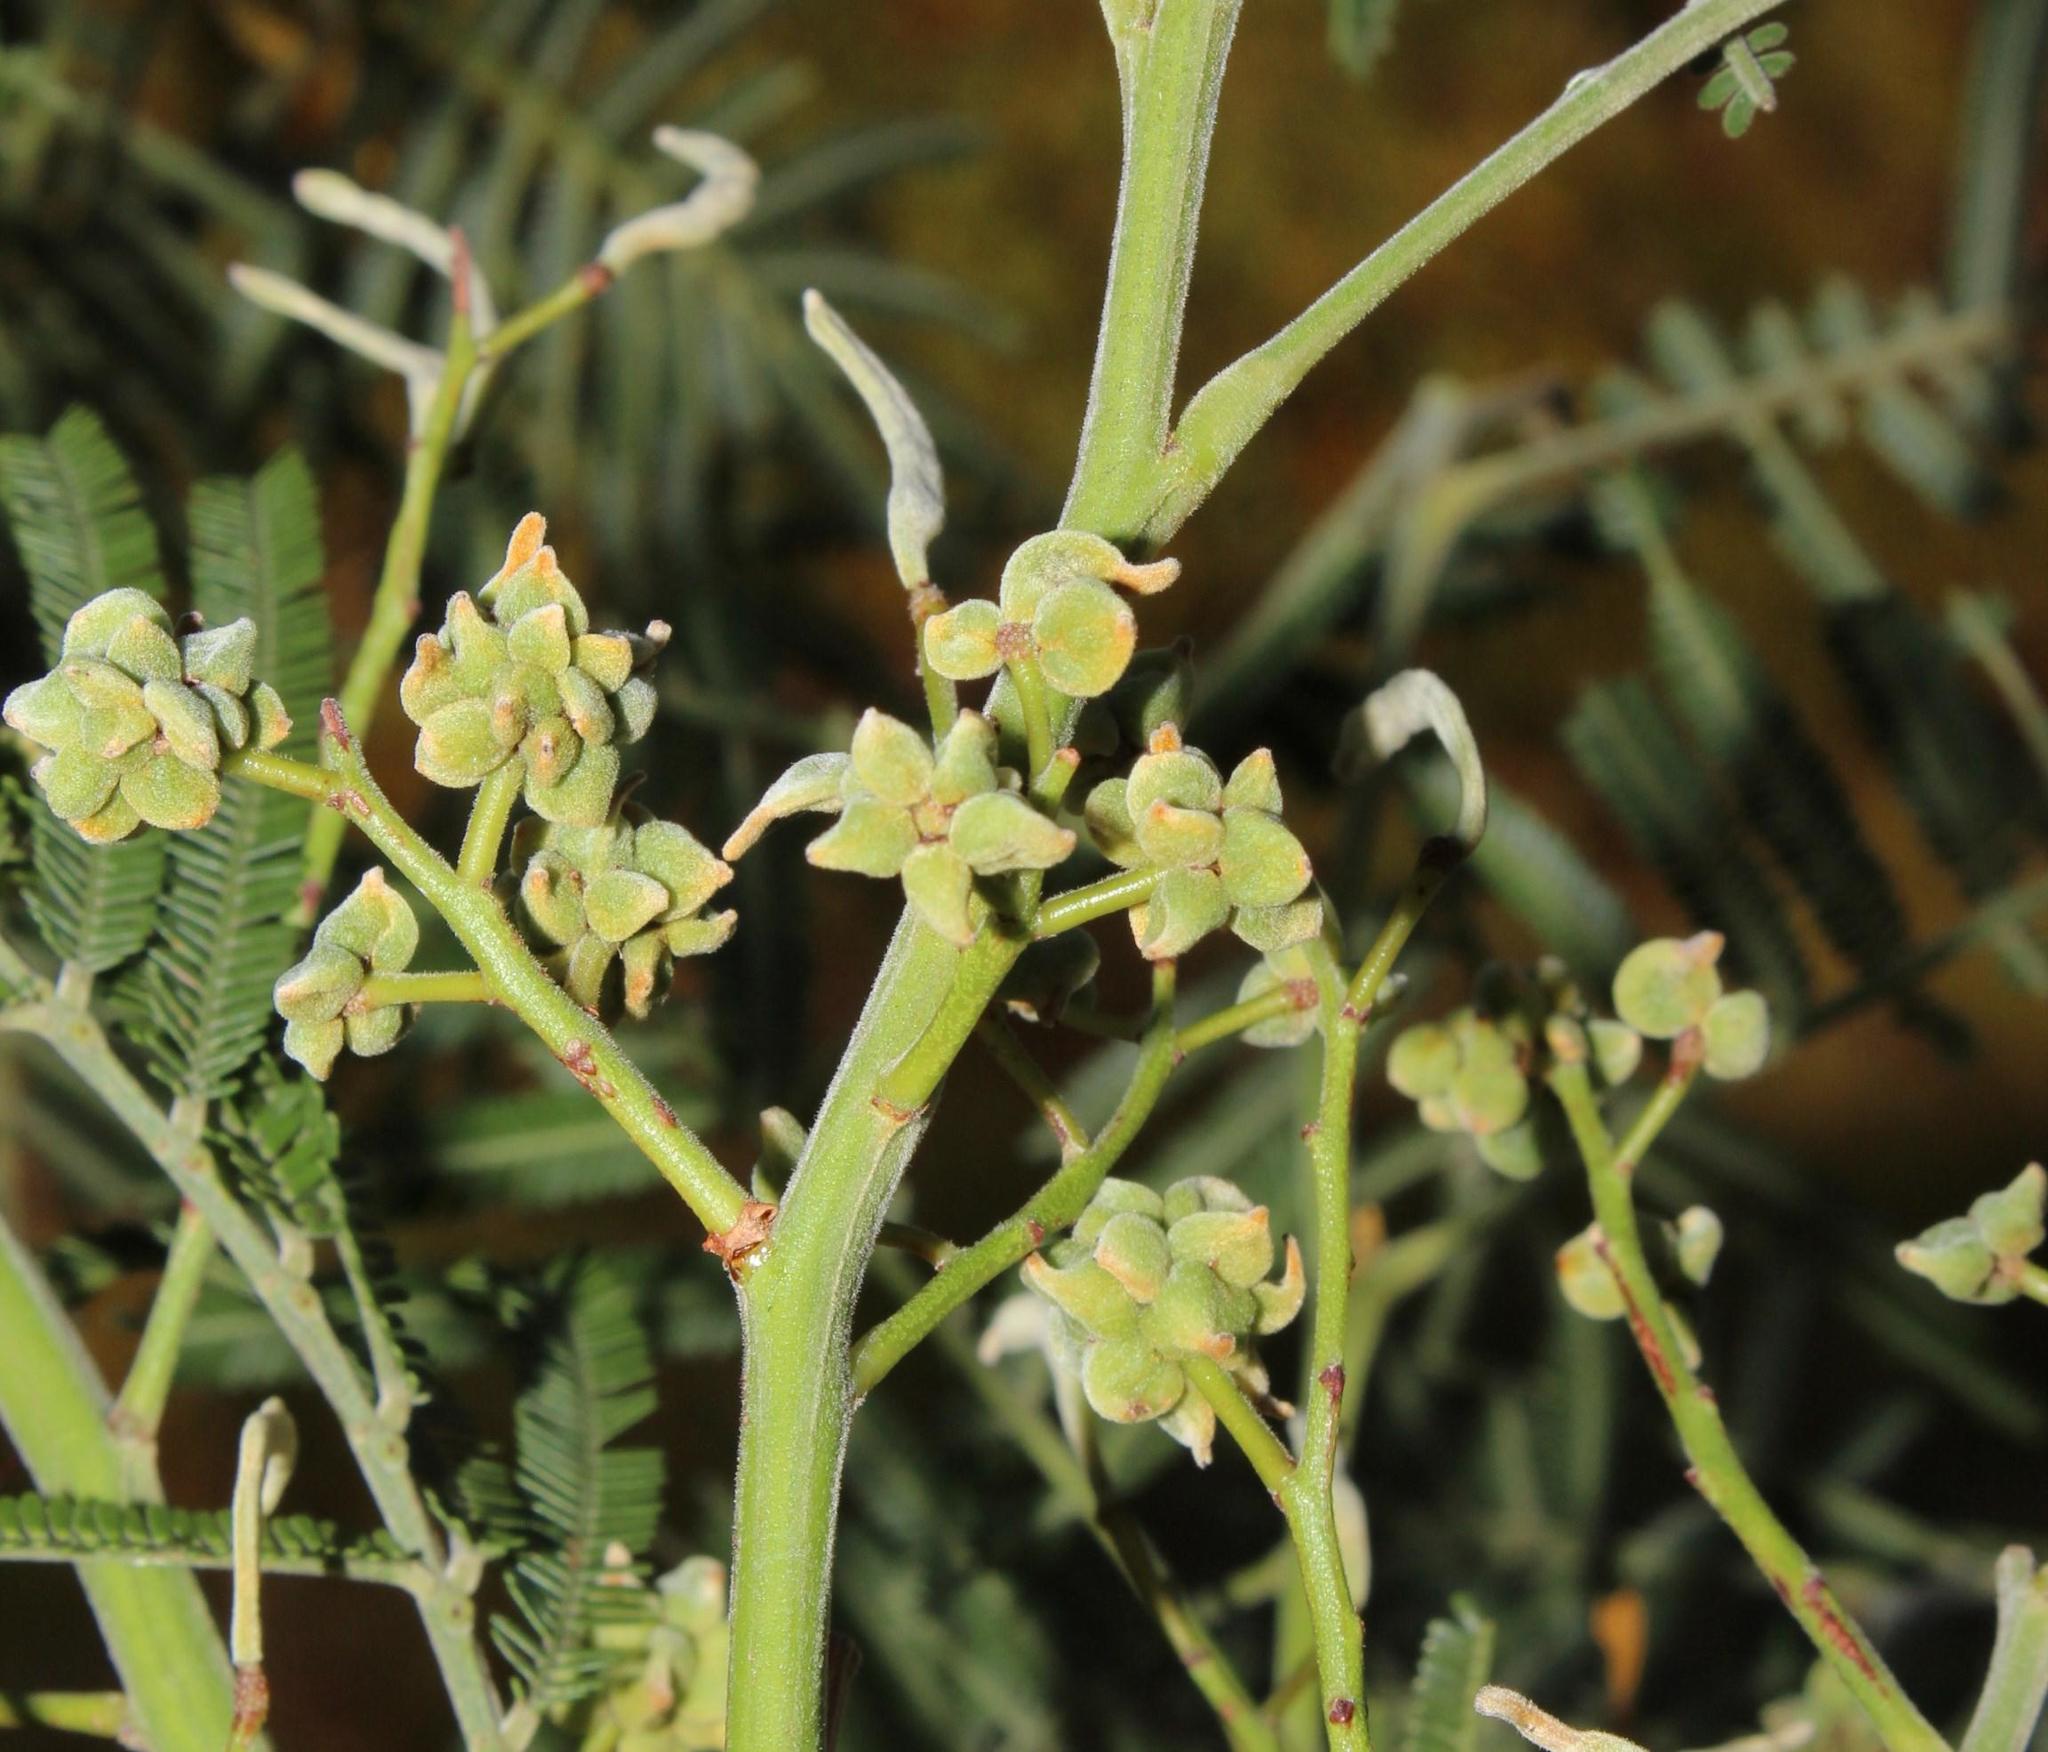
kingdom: Animalia
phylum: Arthropoda
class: Insecta
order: Diptera
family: Cecidomyiidae
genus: Dasineura
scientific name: Dasineura rubiformis
